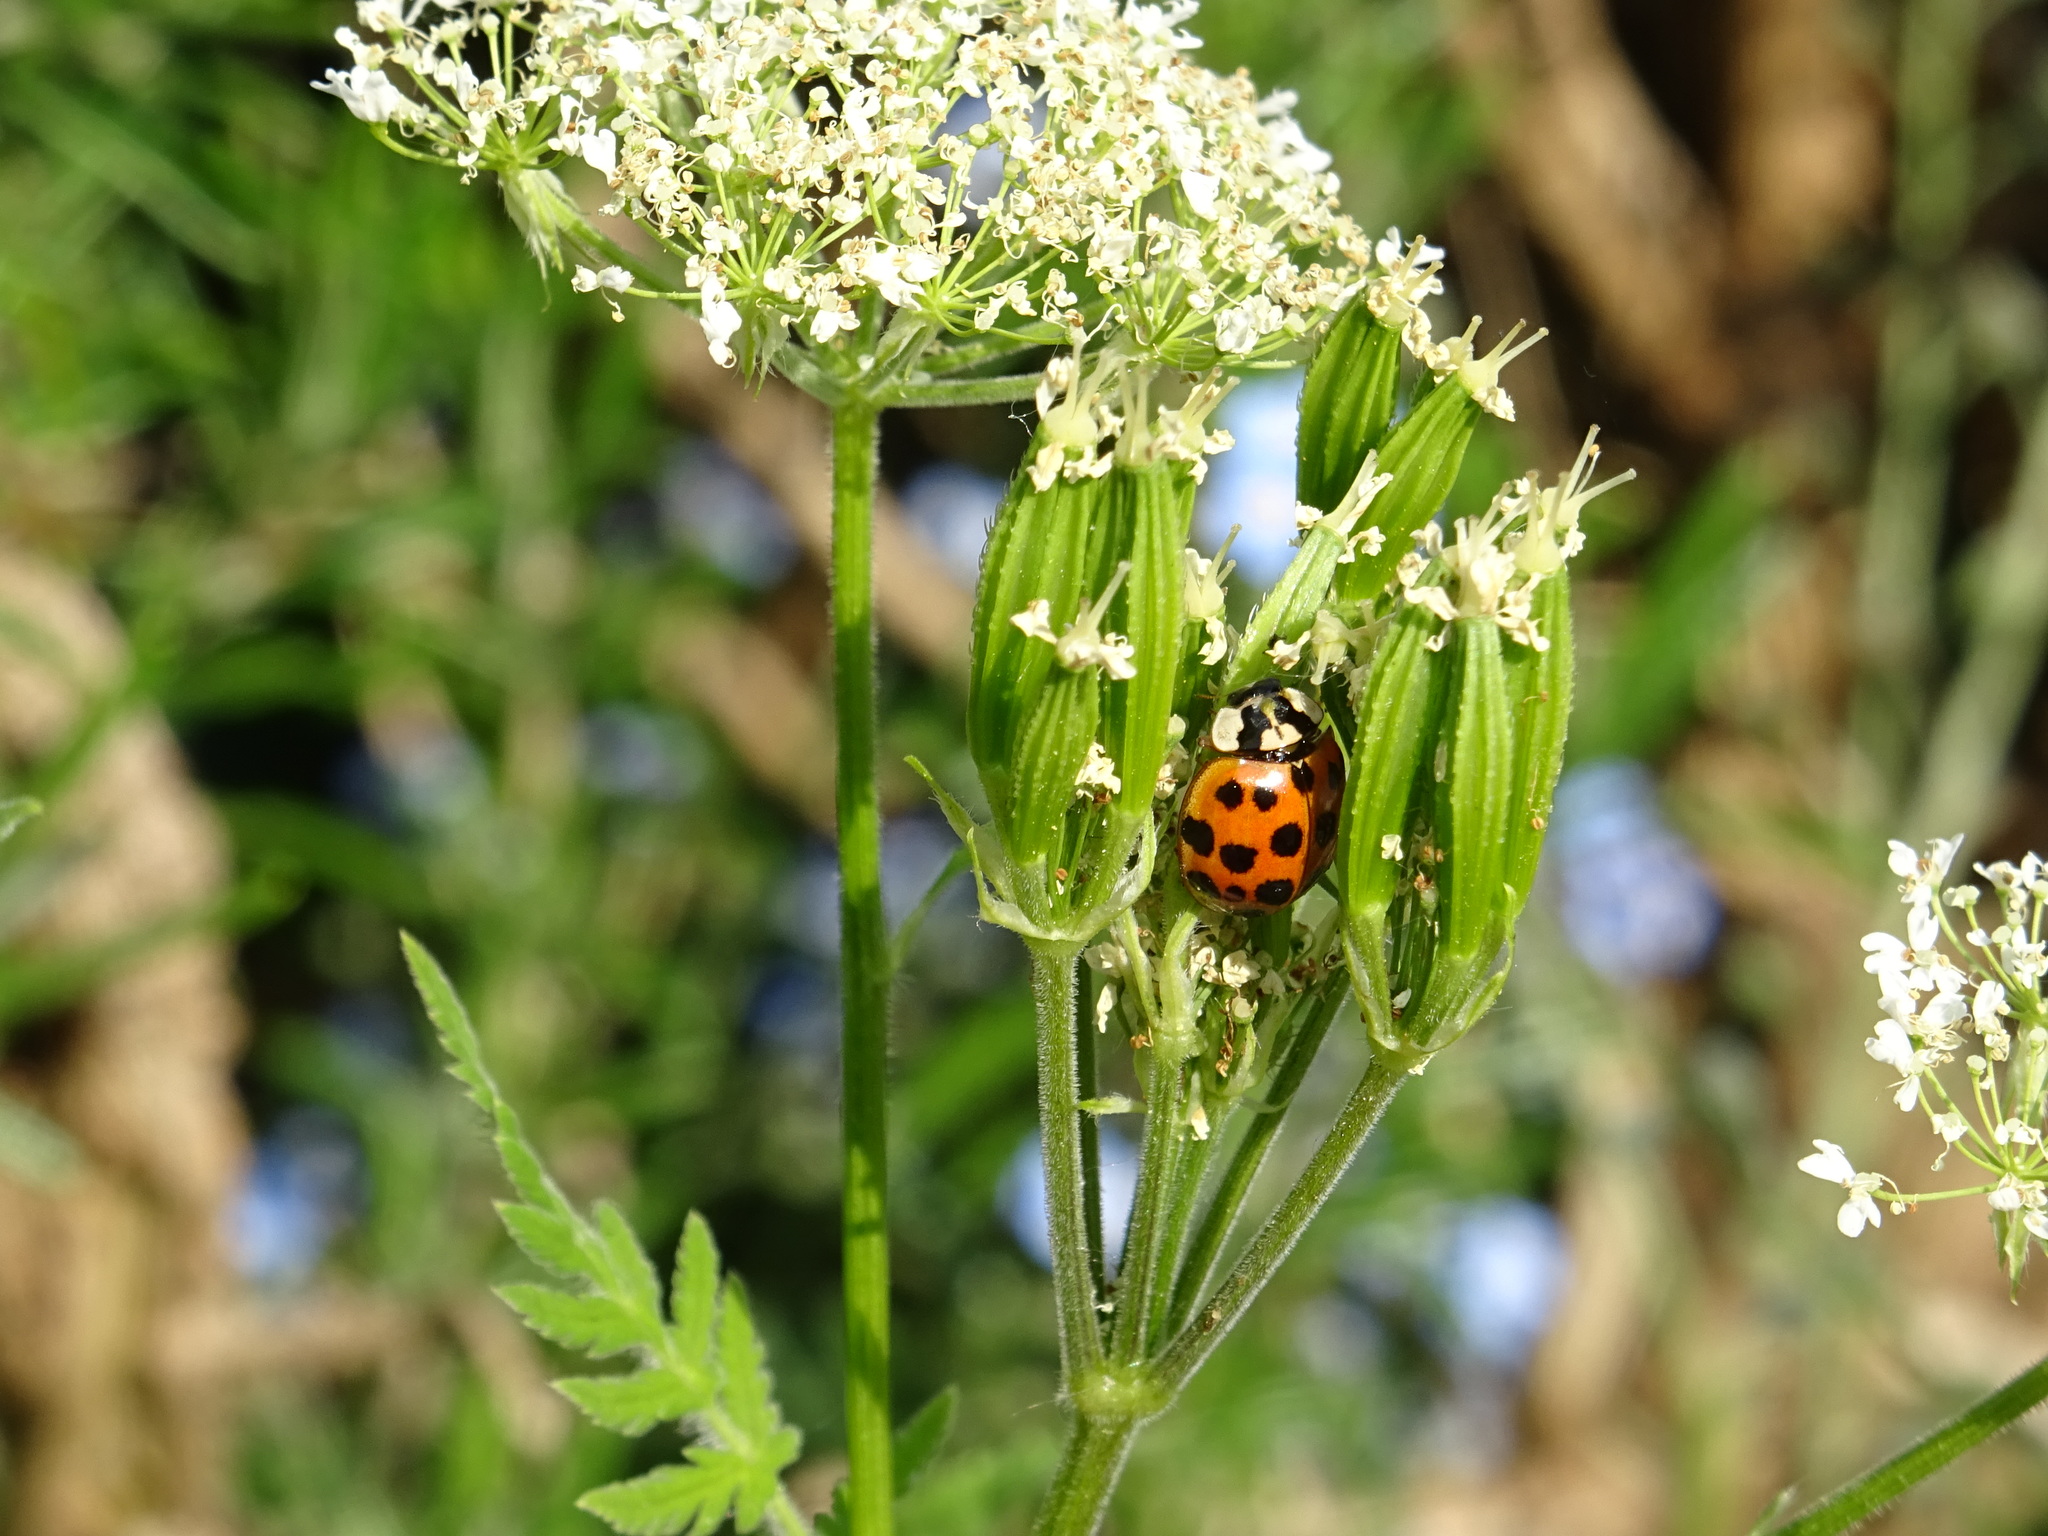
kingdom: Animalia
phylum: Arthropoda
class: Insecta
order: Coleoptera
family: Coccinellidae
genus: Harmonia
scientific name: Harmonia axyridis
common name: Harlequin ladybird
